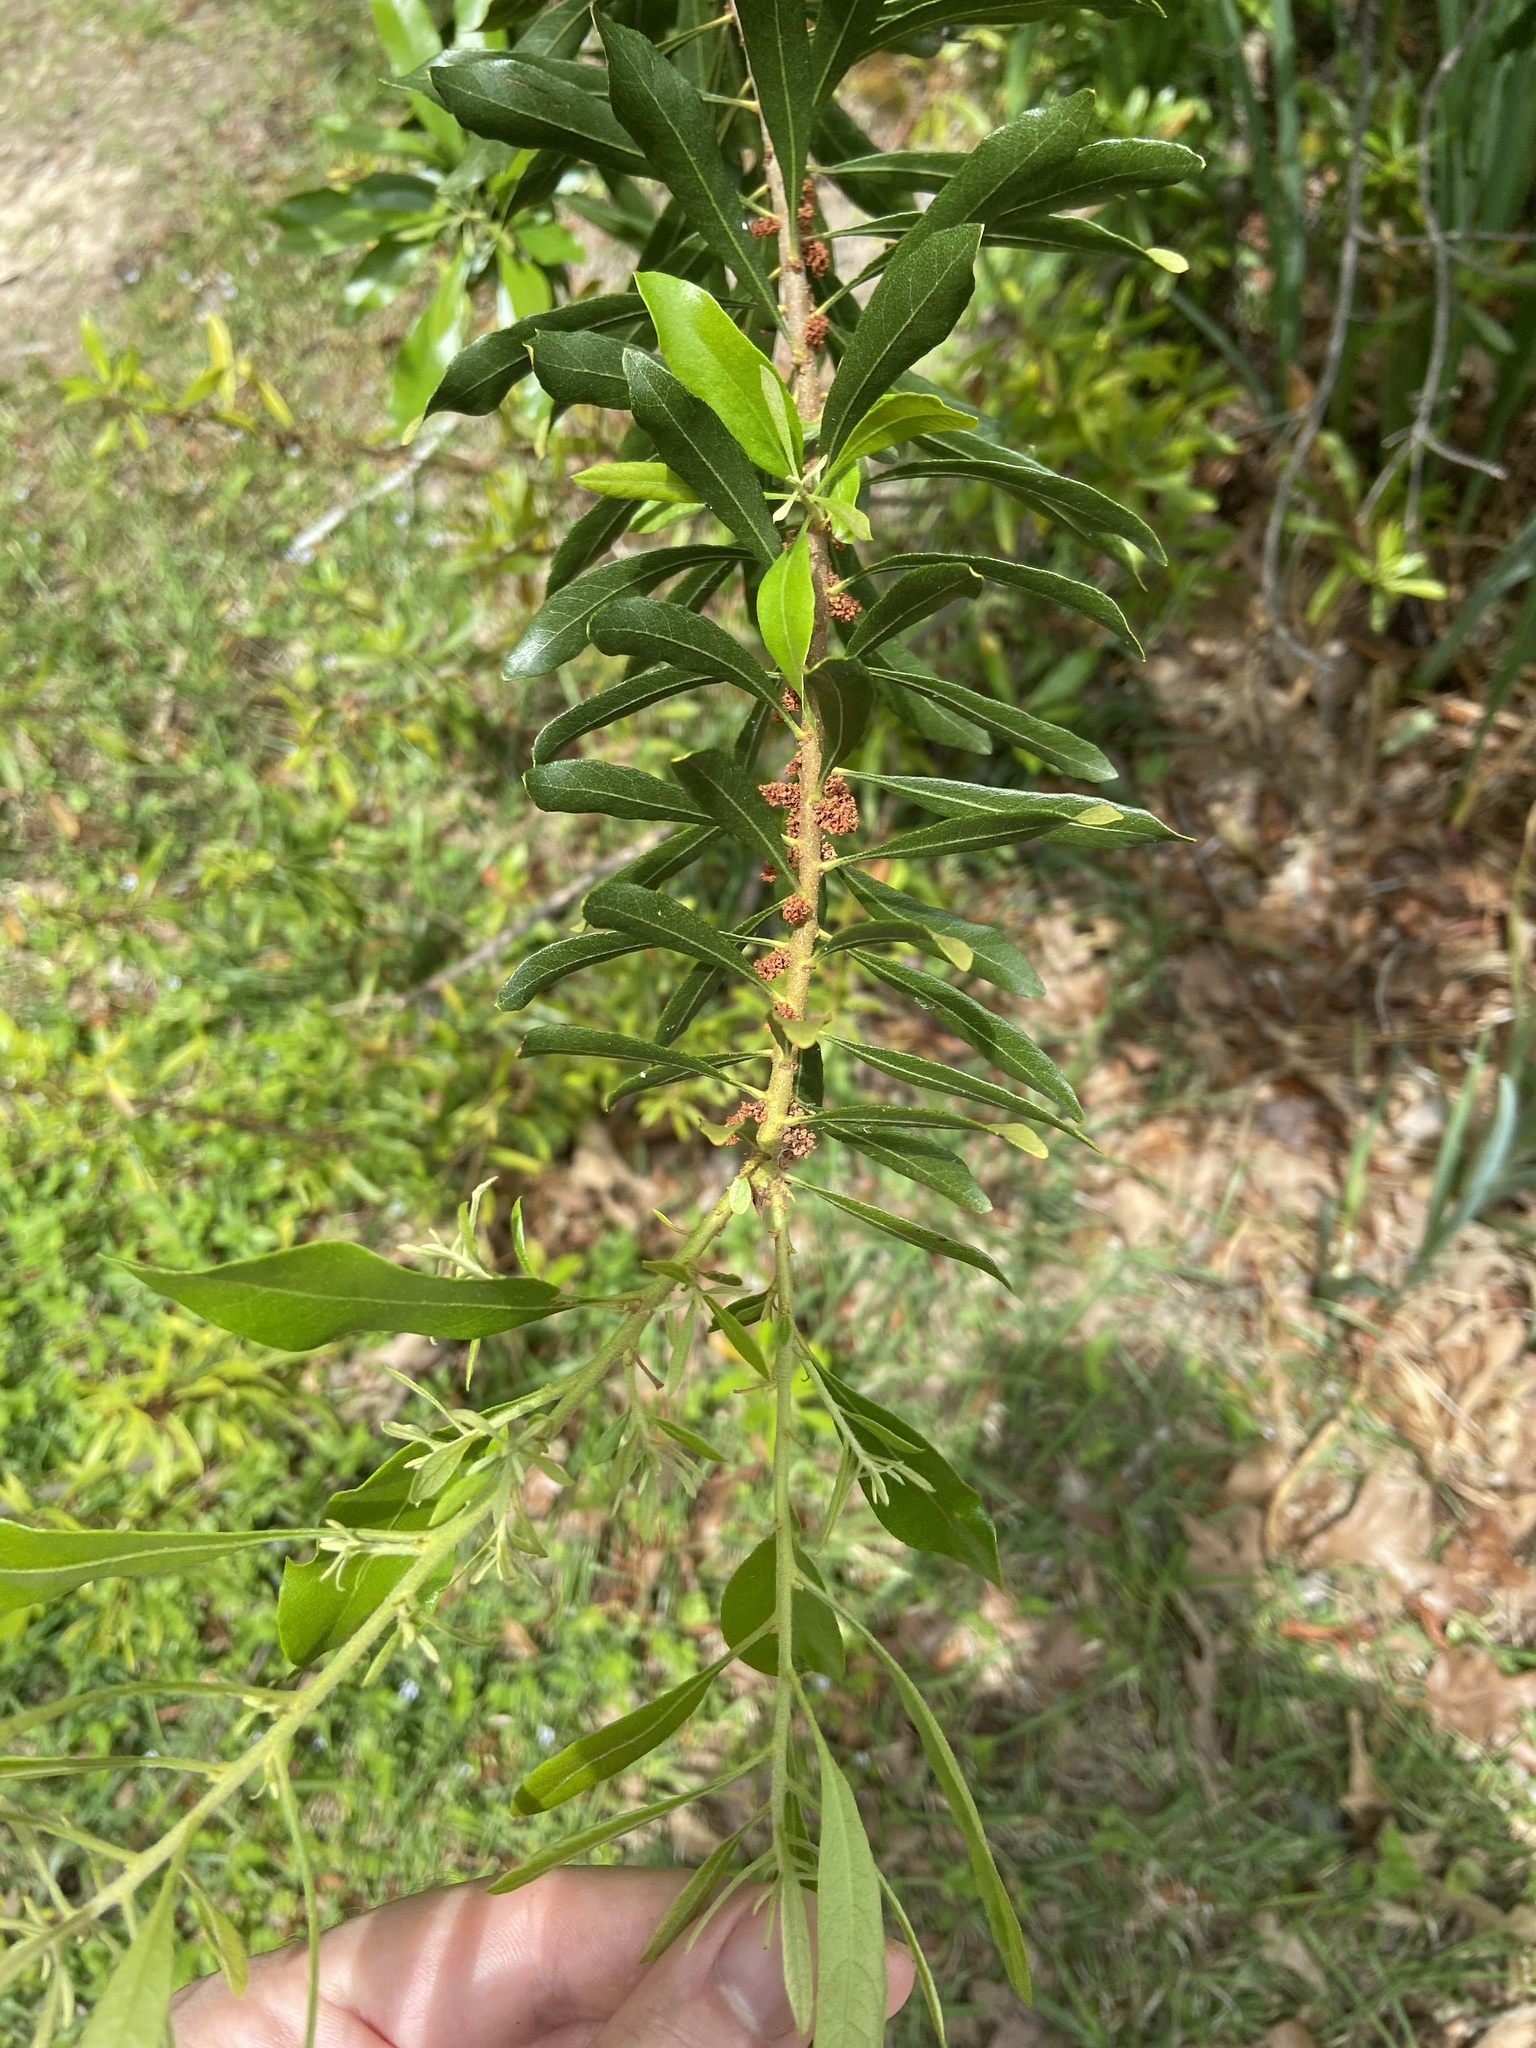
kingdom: Plantae
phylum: Tracheophyta
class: Magnoliopsida
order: Fagales
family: Myricaceae
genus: Morella
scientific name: Morella cerifera
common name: Wax myrtle
